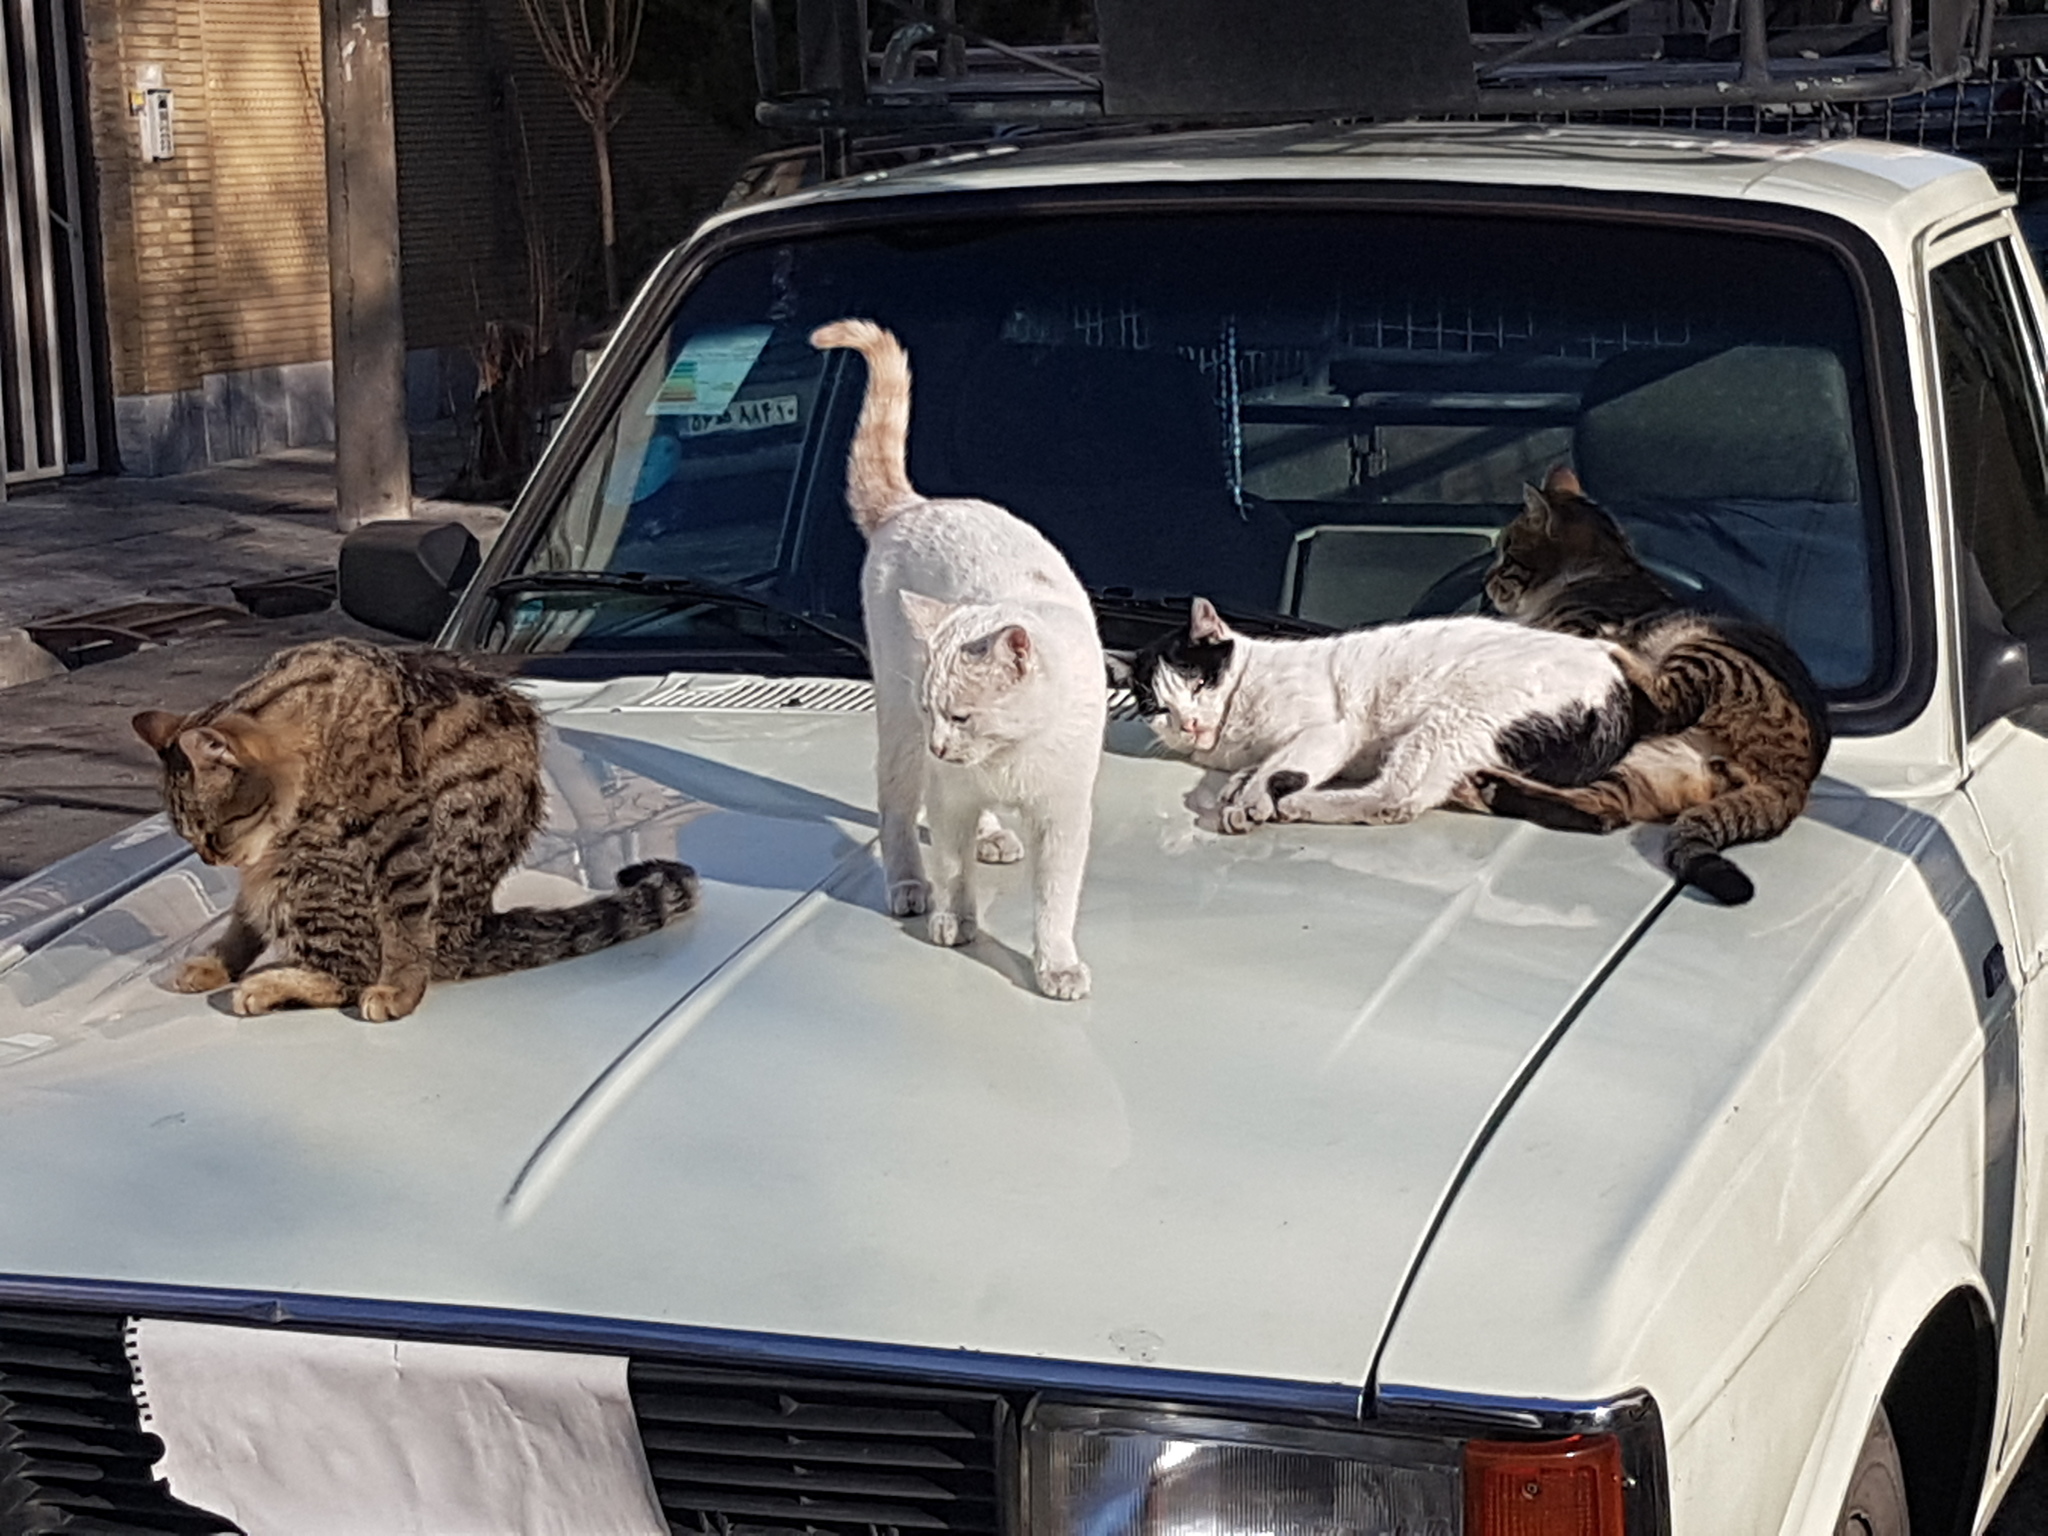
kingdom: Animalia
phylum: Chordata
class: Mammalia
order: Carnivora
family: Felidae
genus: Felis
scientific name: Felis catus
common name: Domestic cat
